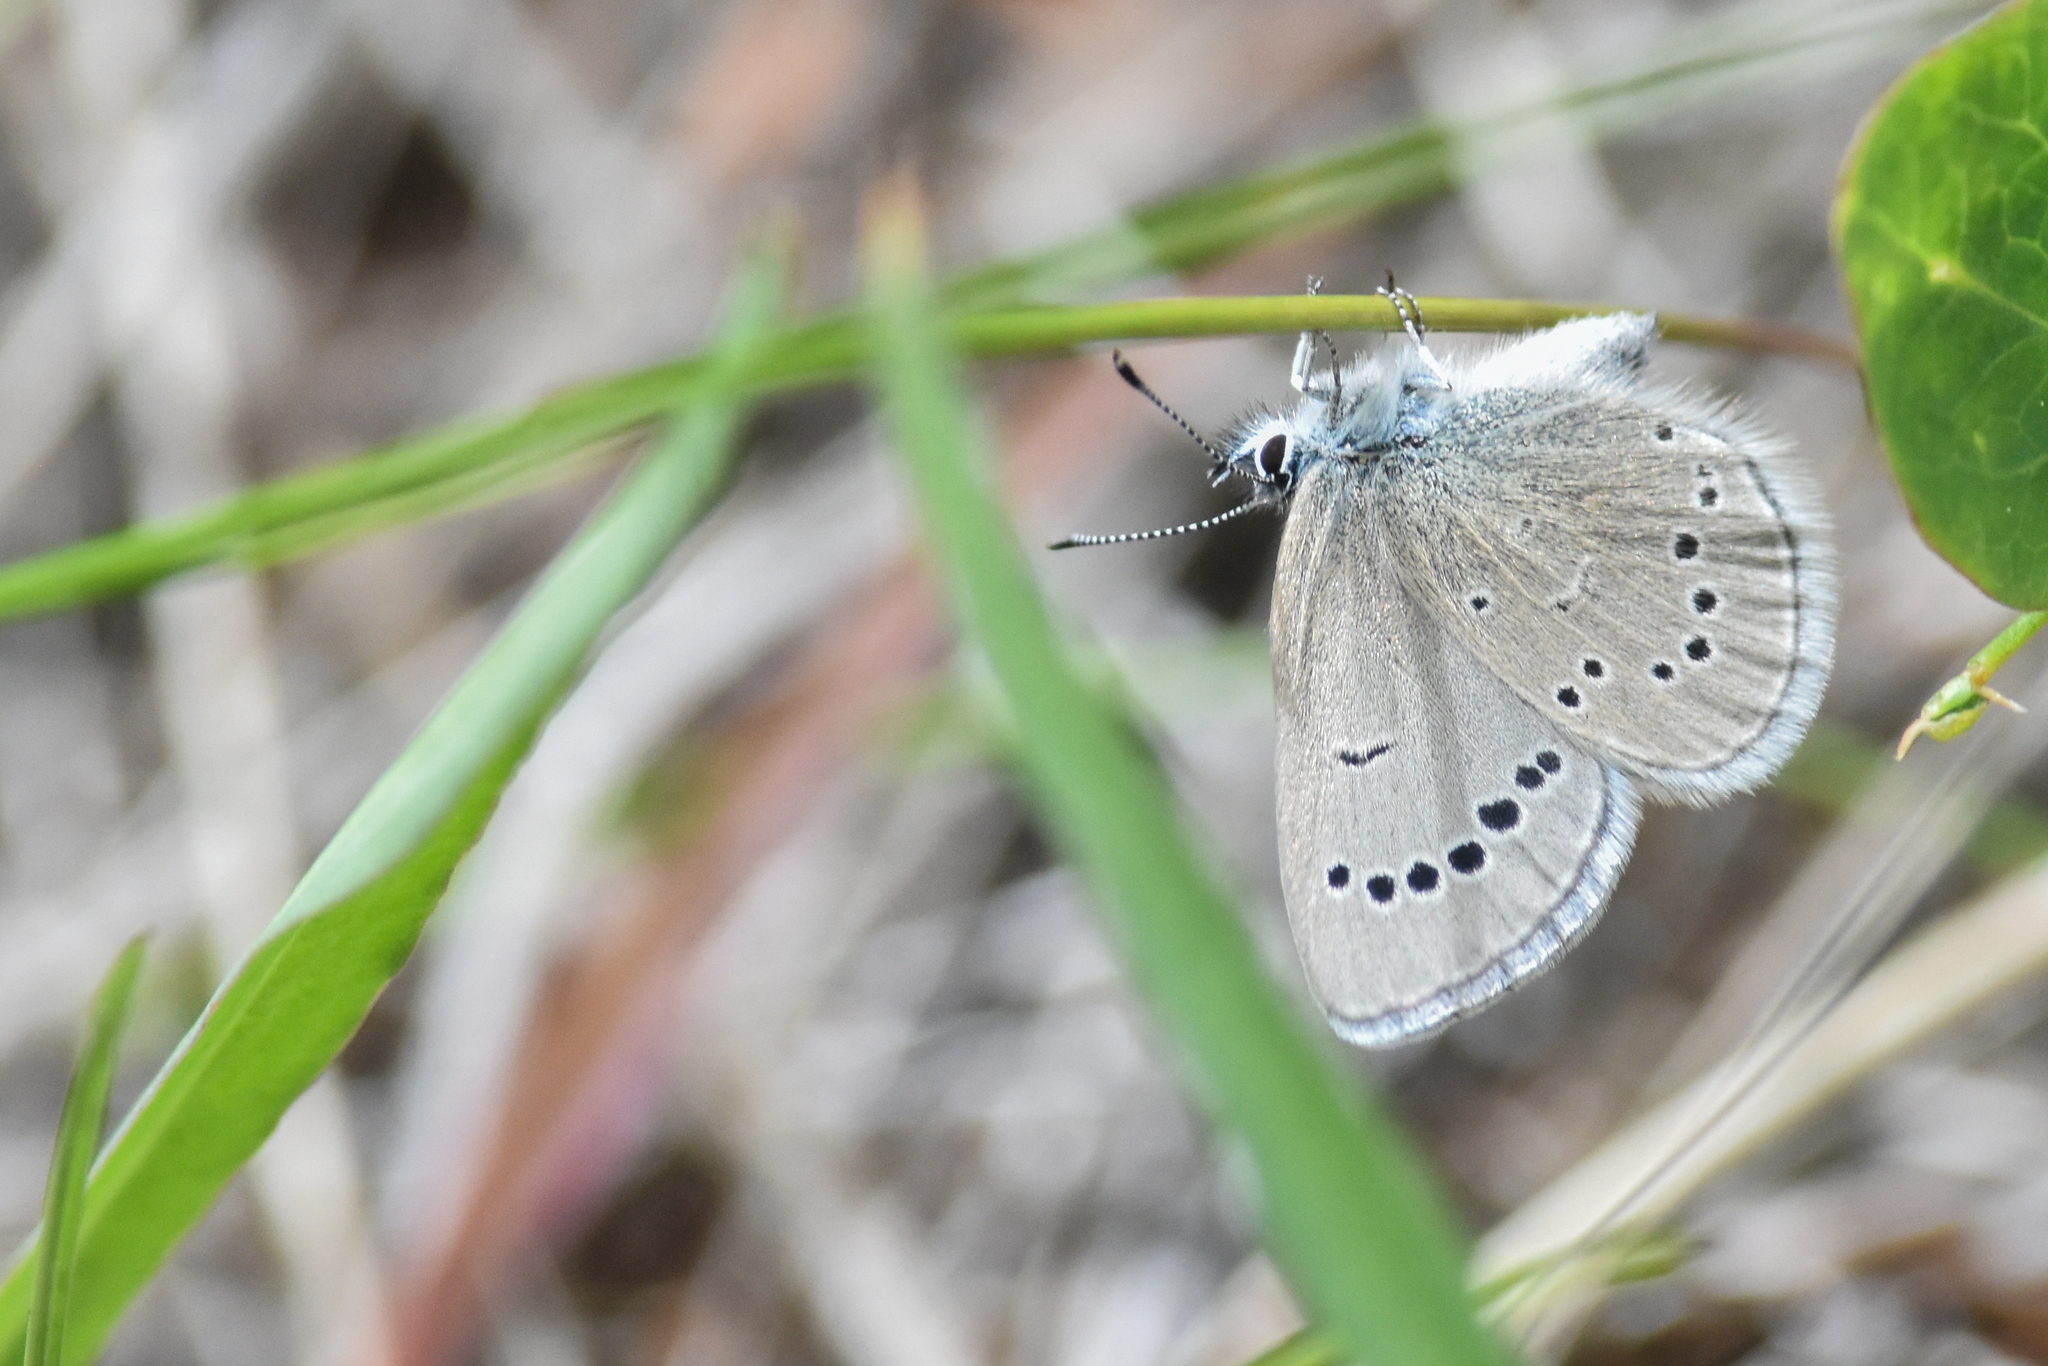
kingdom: Animalia
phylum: Arthropoda
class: Insecta
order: Lepidoptera
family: Lycaenidae
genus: Glaucopsyche
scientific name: Glaucopsyche lygdamus
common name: Silvery blue
